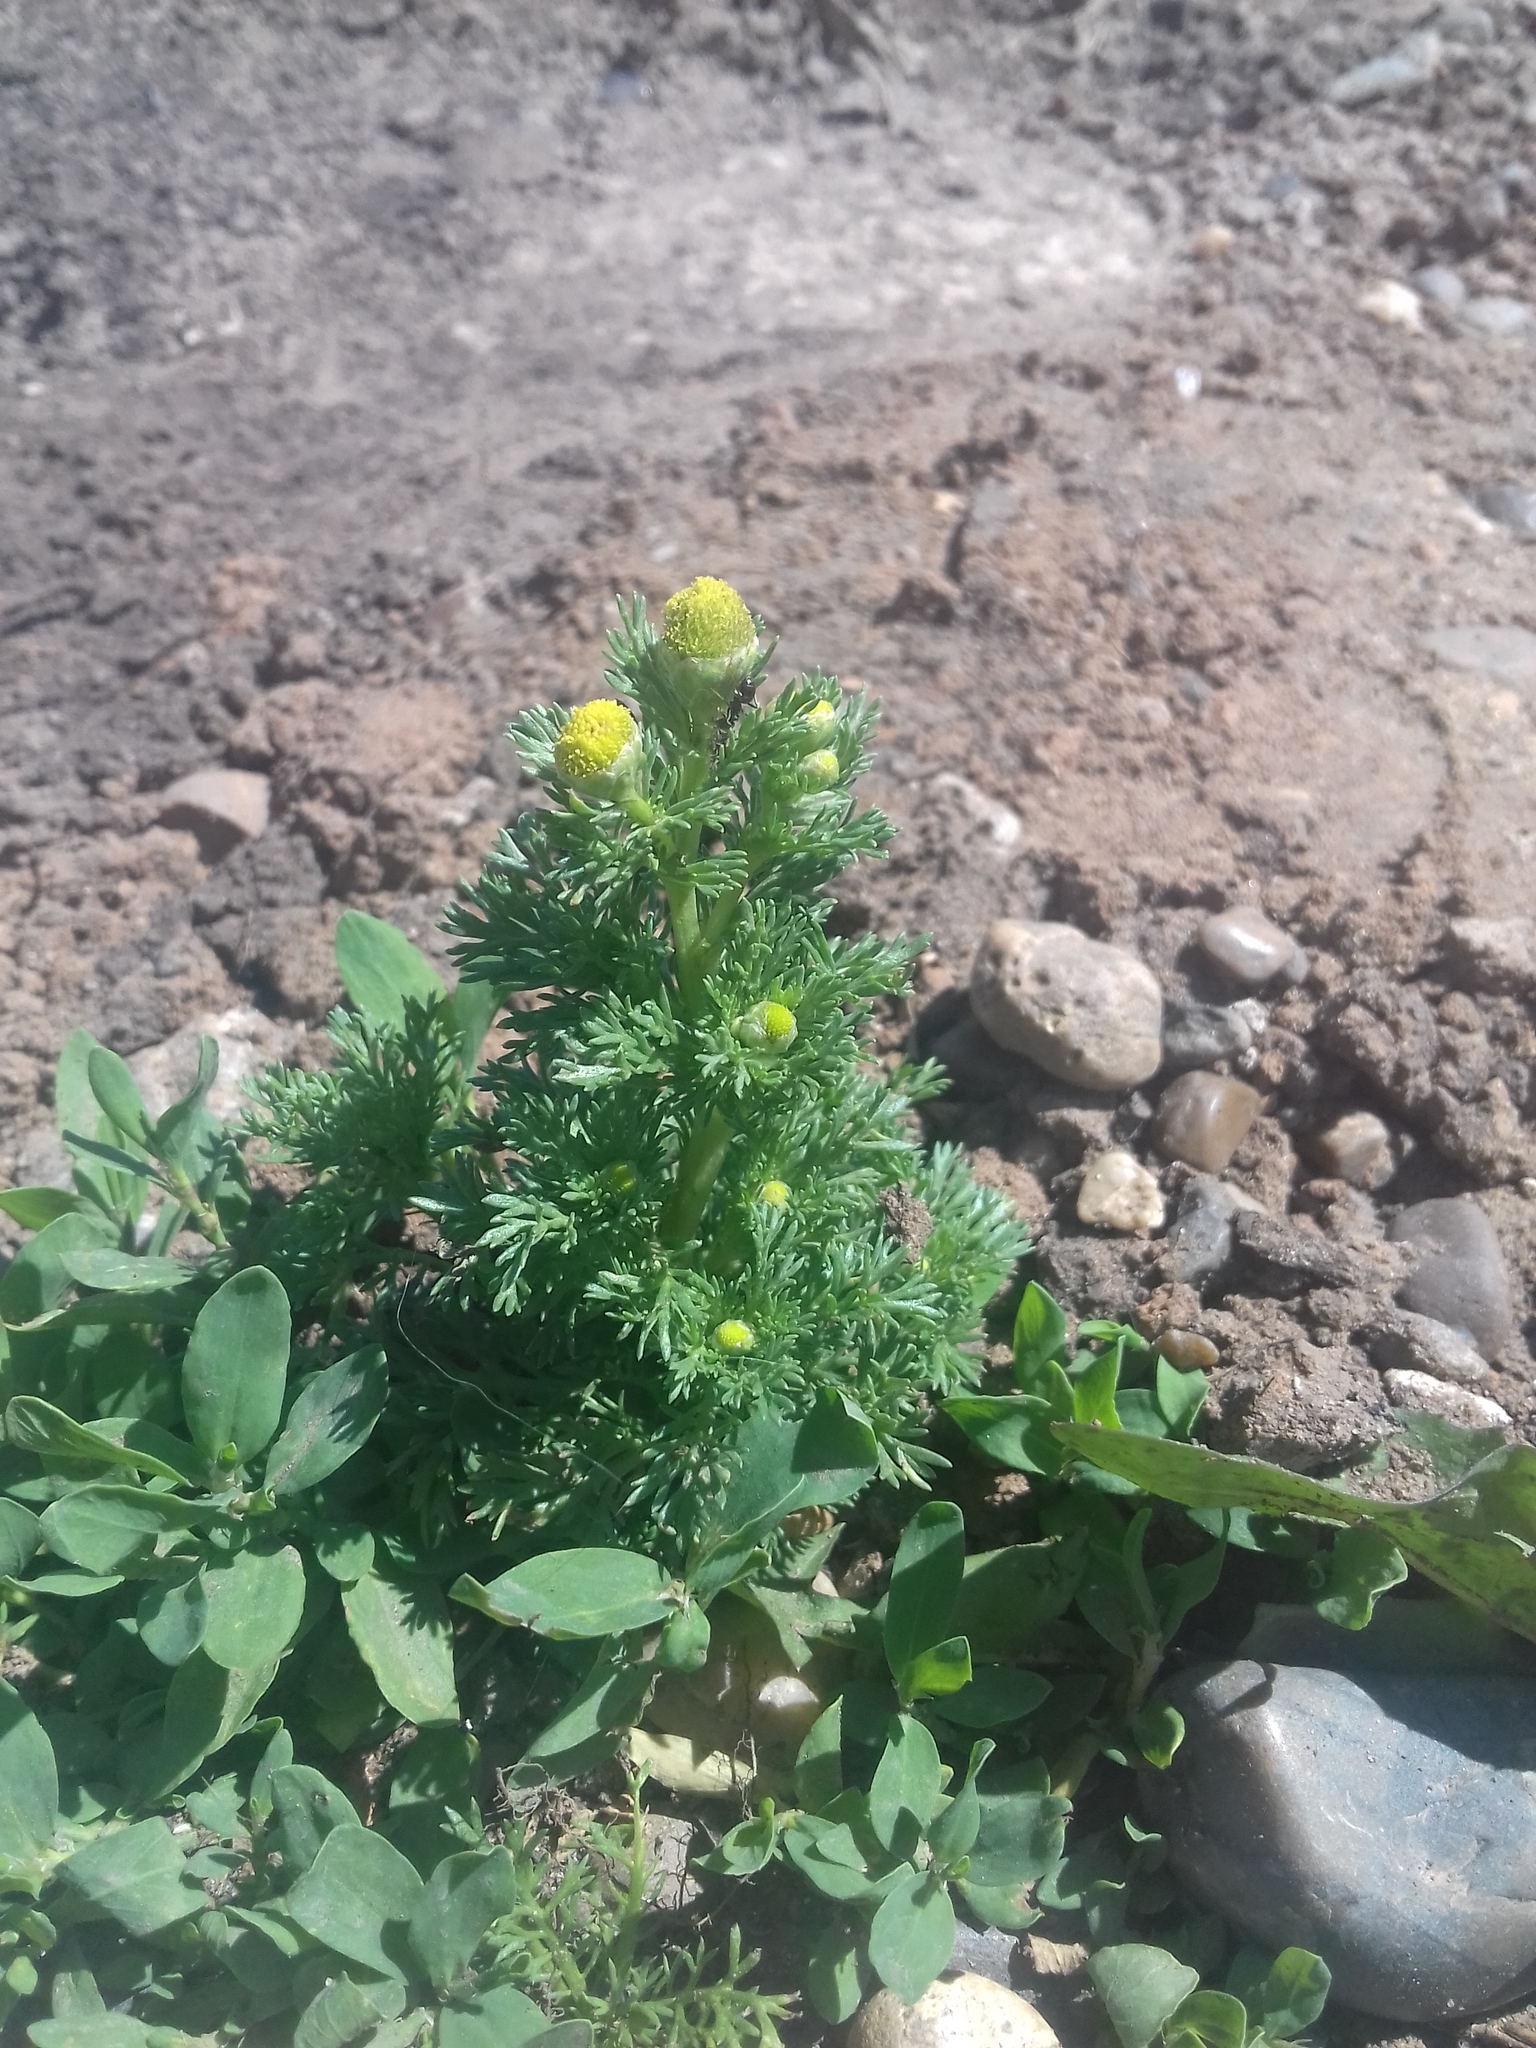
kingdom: Plantae
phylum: Tracheophyta
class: Magnoliopsida
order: Asterales
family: Asteraceae
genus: Matricaria
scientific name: Matricaria discoidea
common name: Disc mayweed
